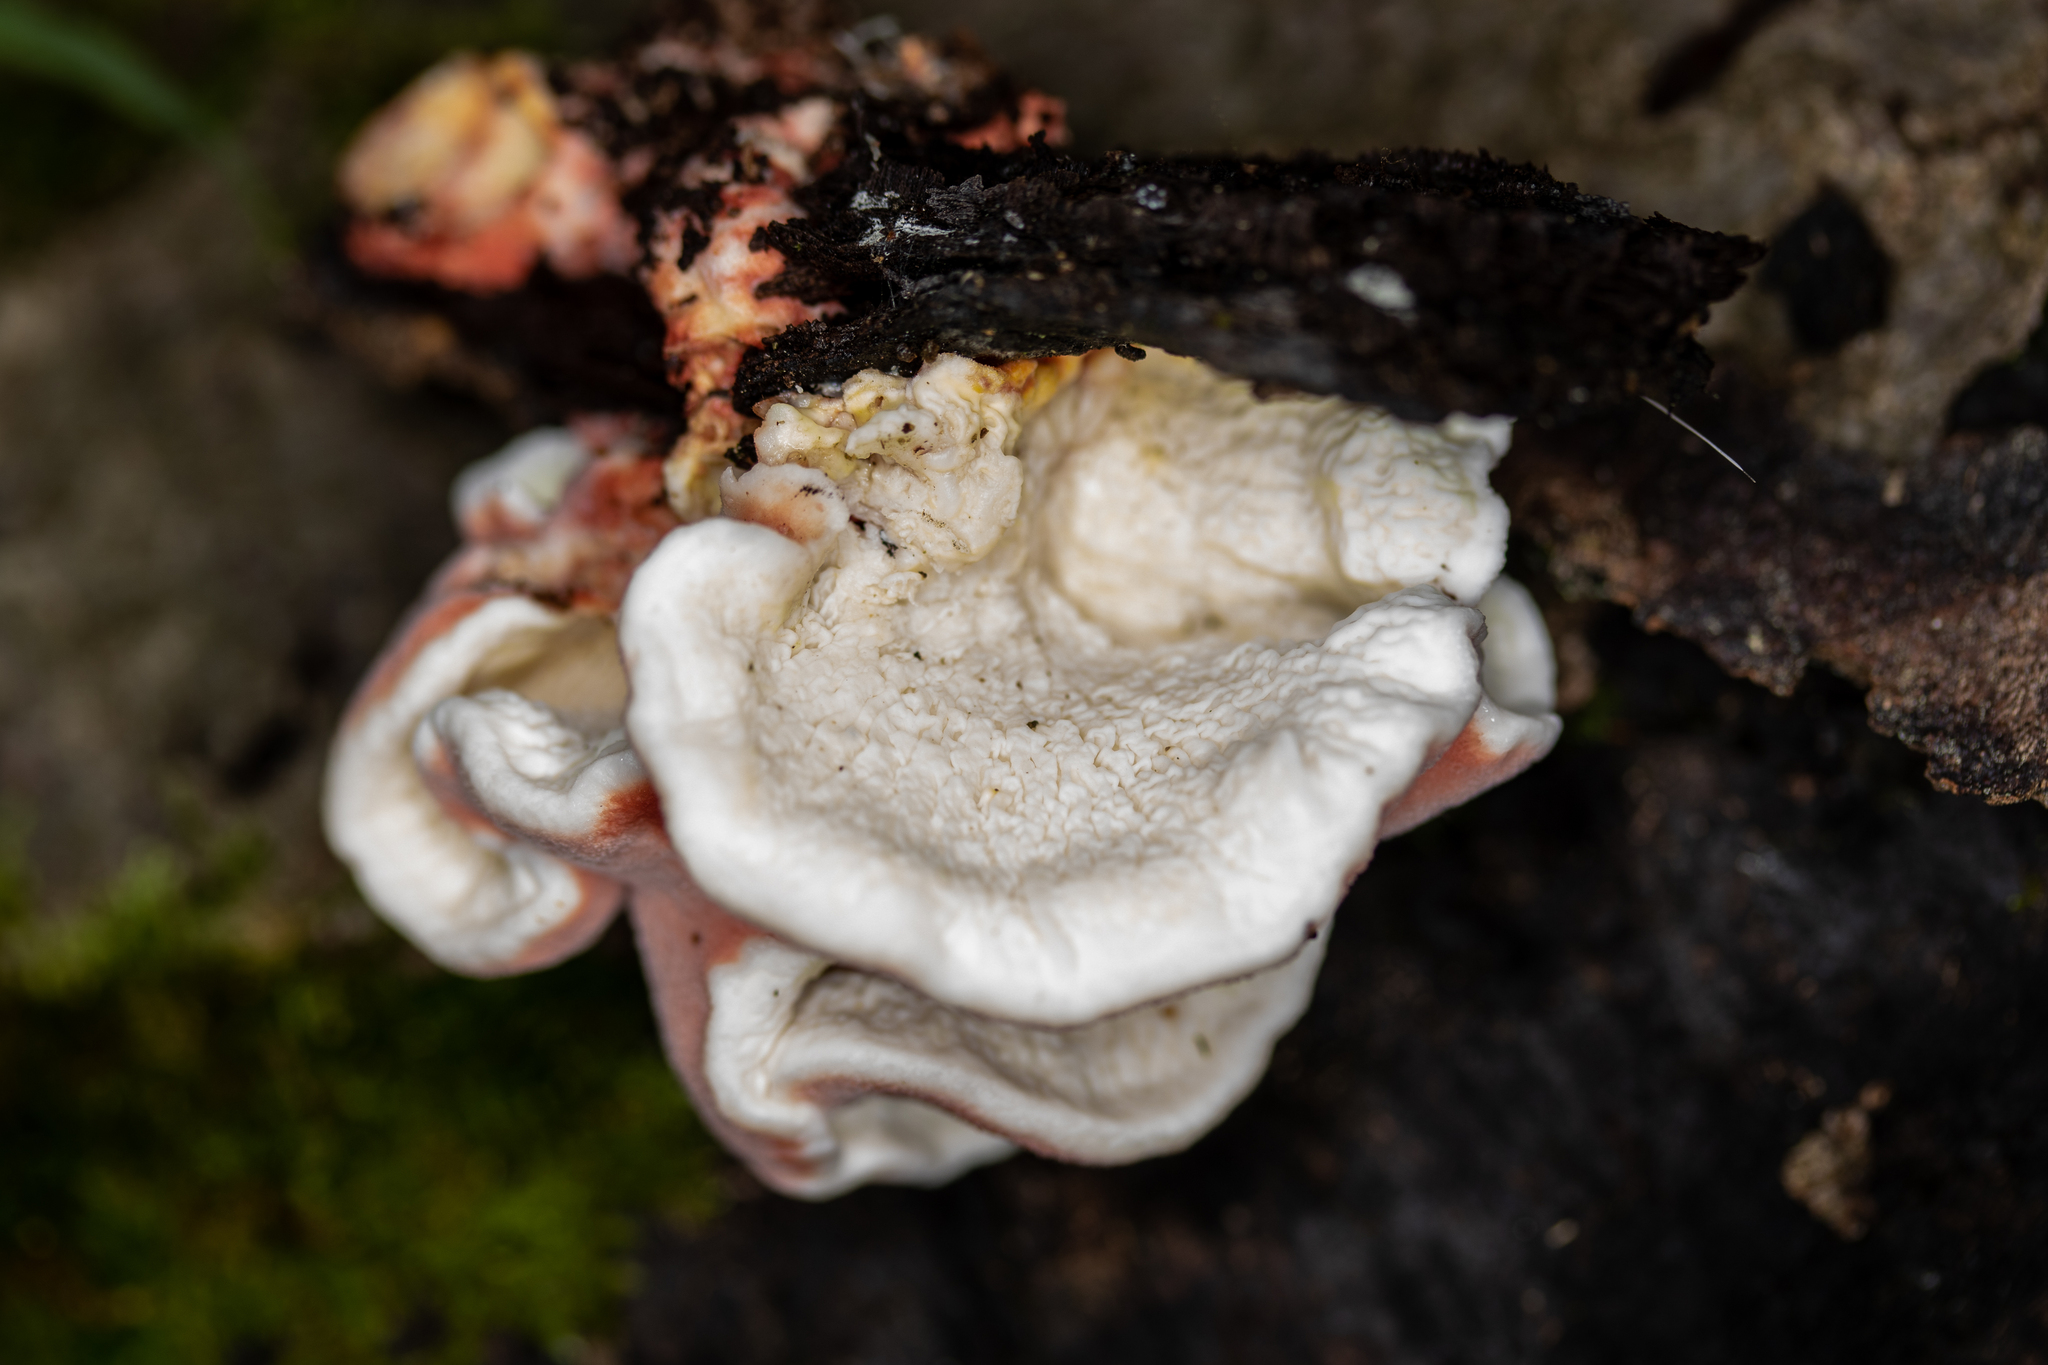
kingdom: Fungi
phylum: Basidiomycota
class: Agaricomycetes
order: Polyporales
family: Irpicaceae
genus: Byssomerulius
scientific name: Byssomerulius incarnatus
